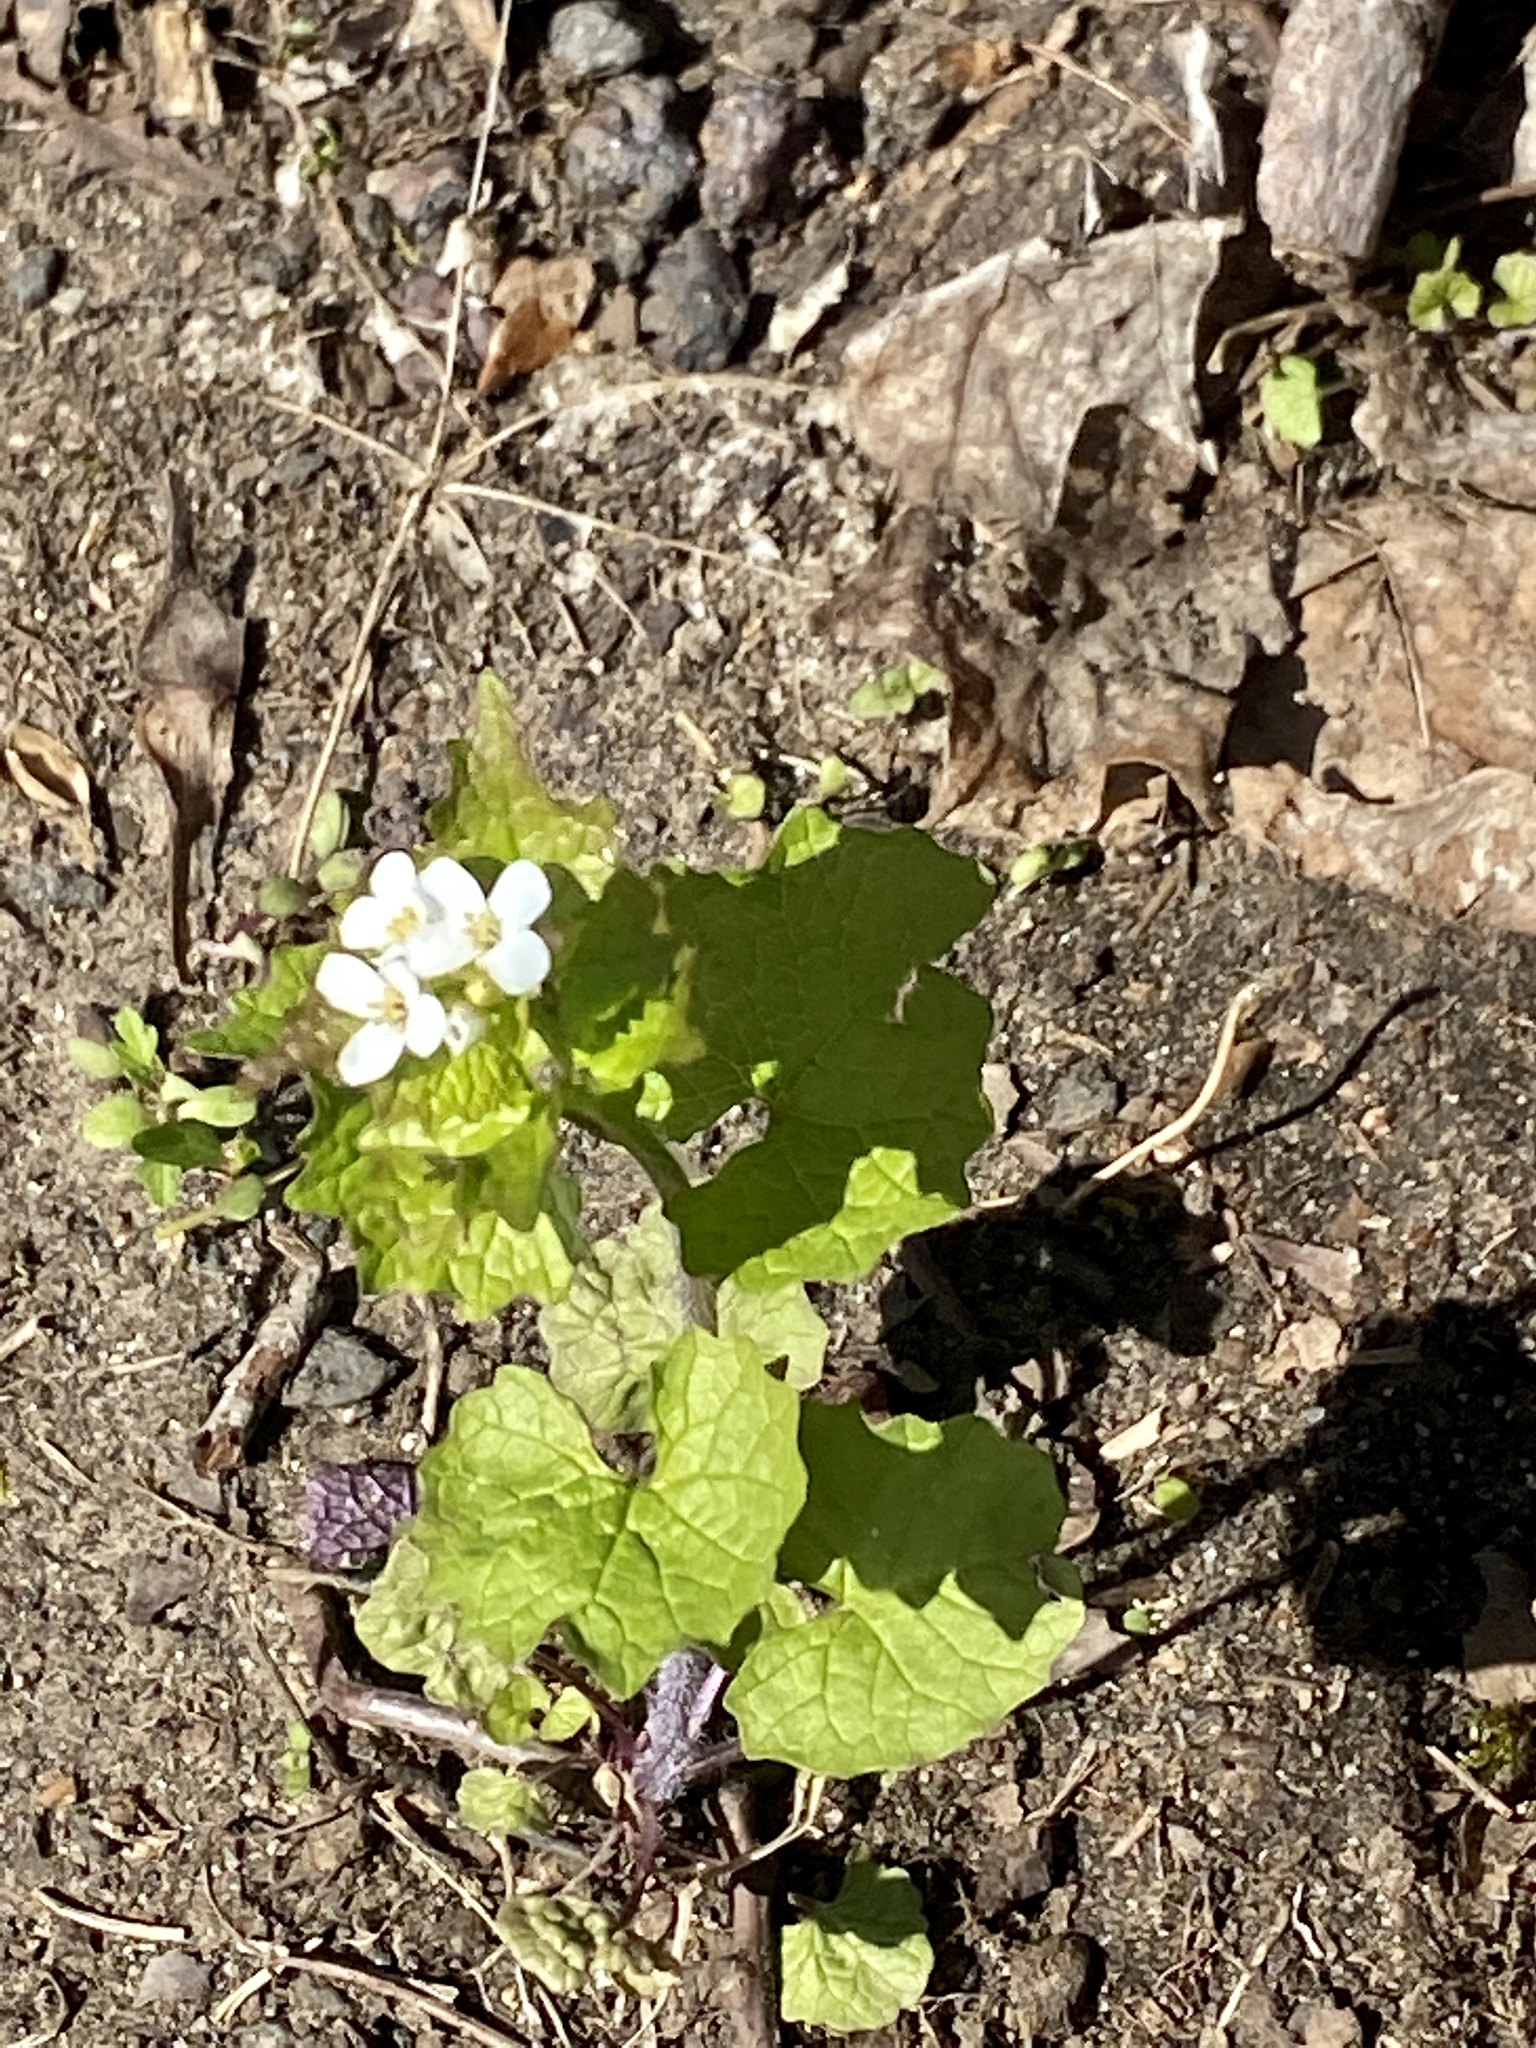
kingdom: Plantae
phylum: Tracheophyta
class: Magnoliopsida
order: Brassicales
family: Brassicaceae
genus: Alliaria
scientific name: Alliaria petiolata
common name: Garlic mustard
